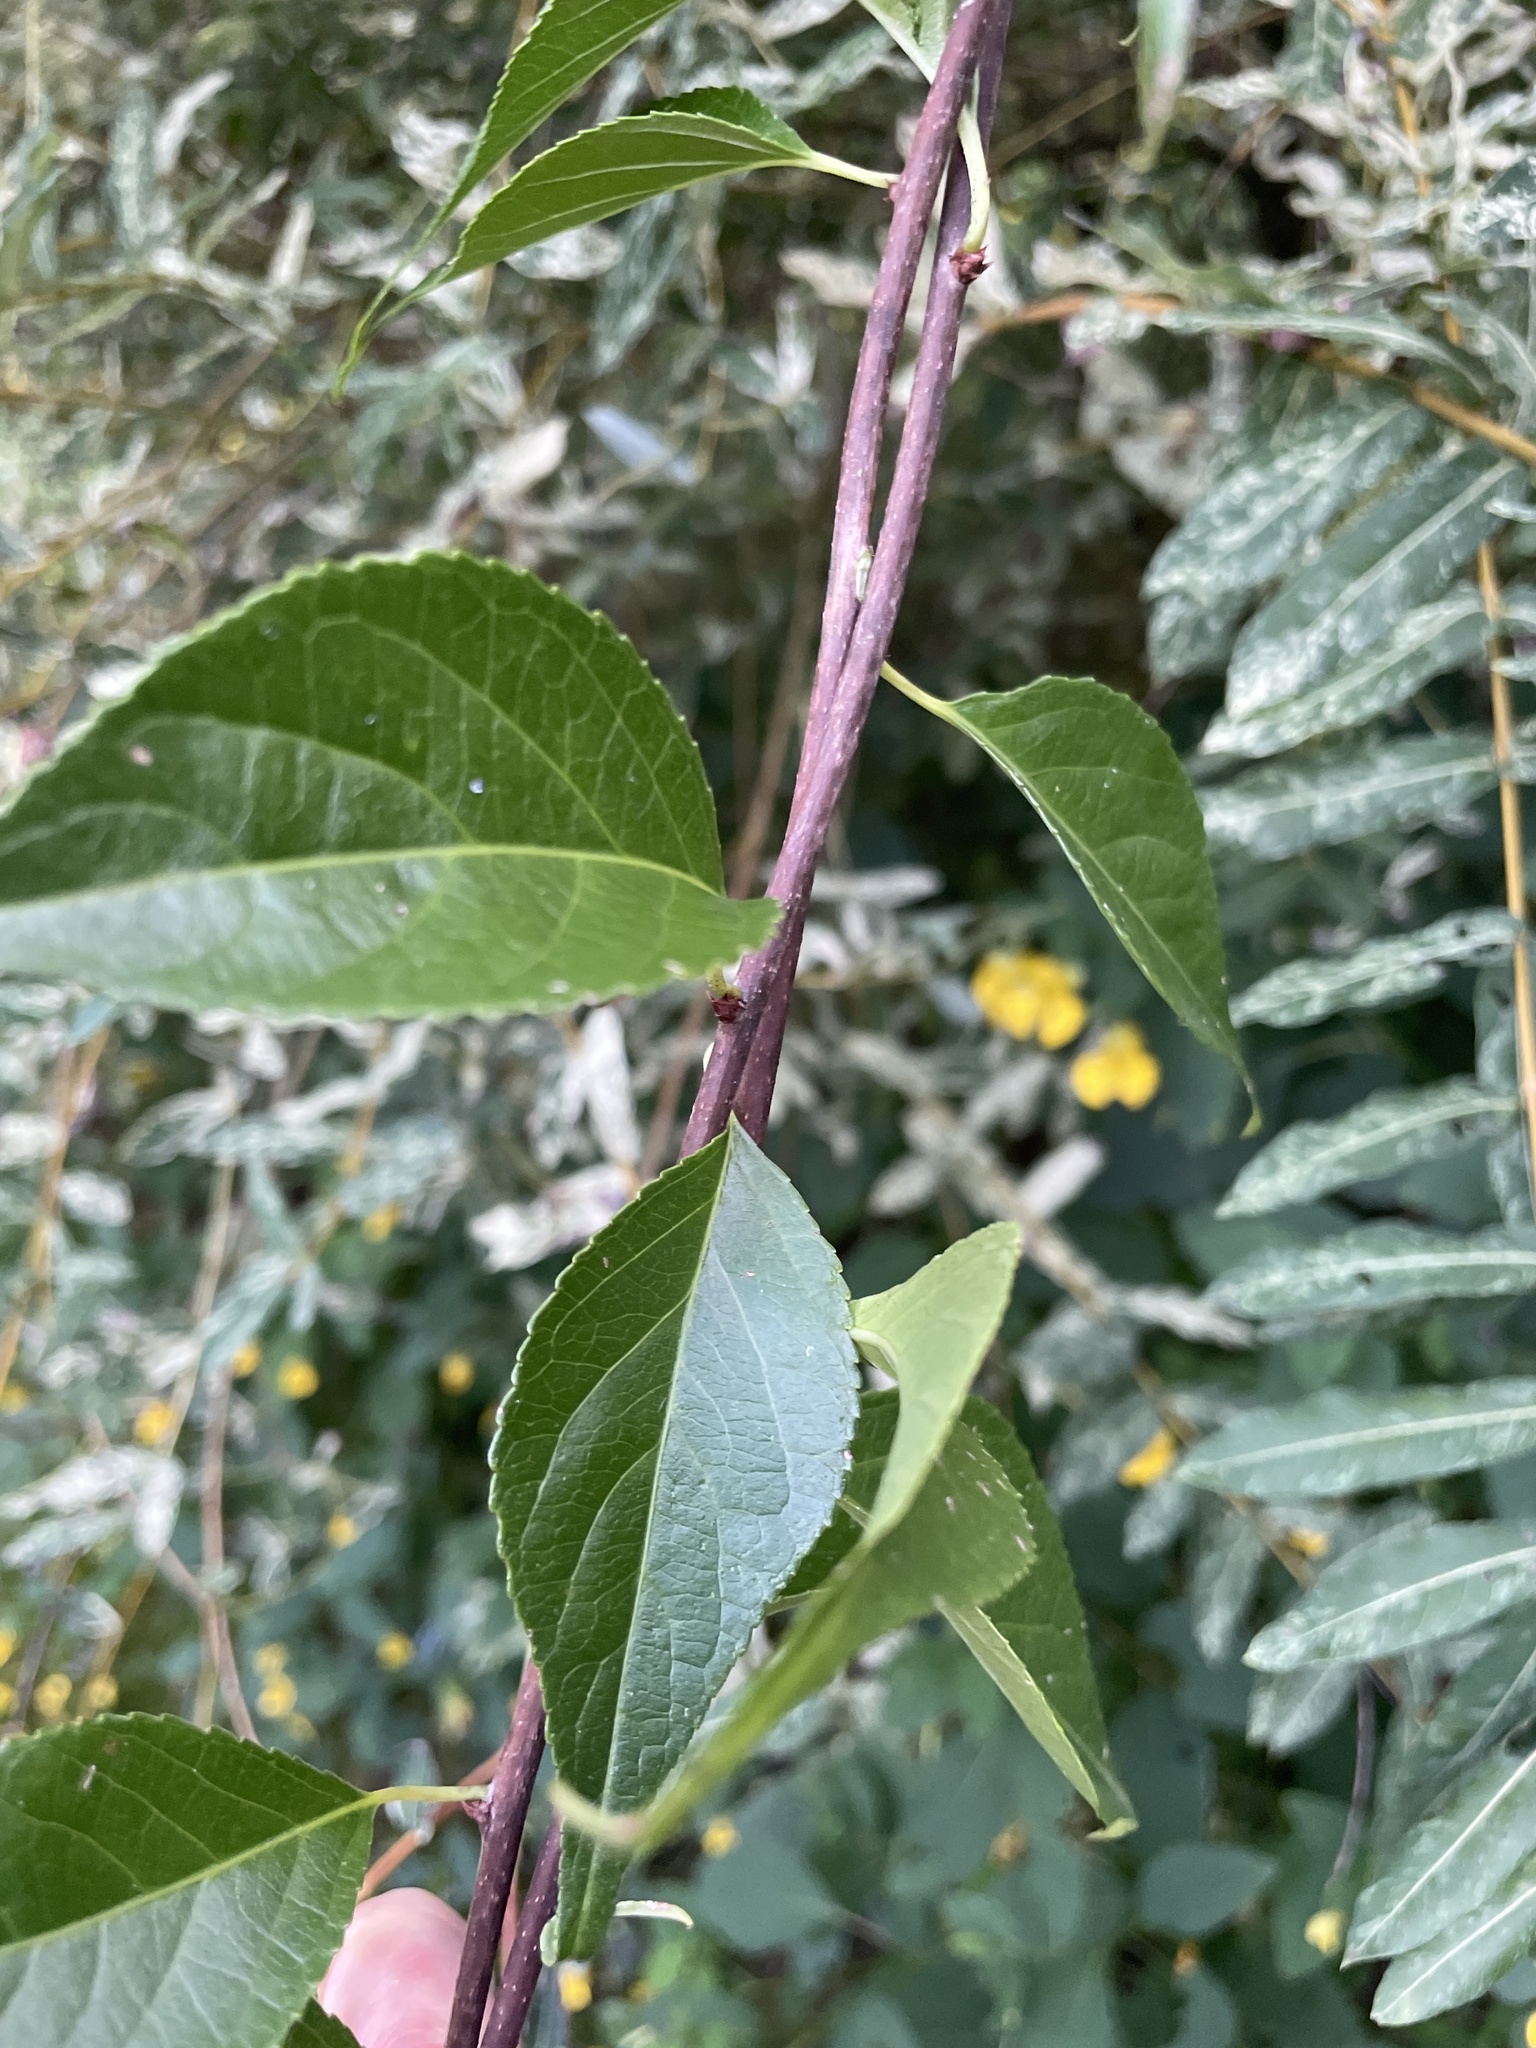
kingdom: Plantae
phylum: Tracheophyta
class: Magnoliopsida
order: Celastrales
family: Celastraceae
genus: Celastrus
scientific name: Celastrus orbiculatus
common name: Oriental bittersweet
